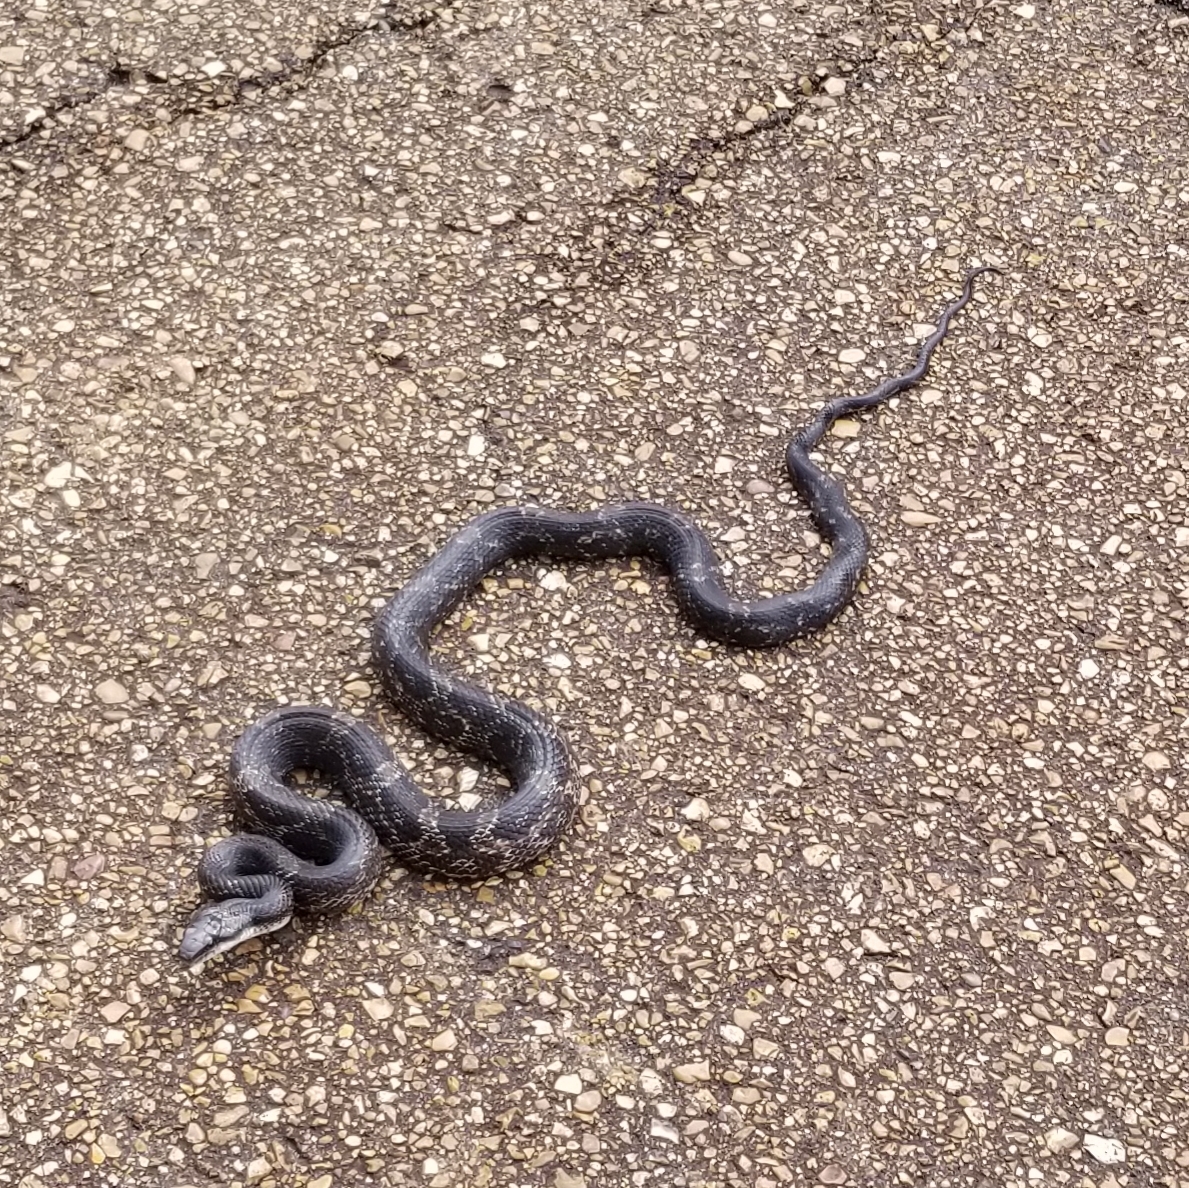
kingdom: Animalia
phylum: Chordata
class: Squamata
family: Colubridae
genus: Pantherophis
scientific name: Pantherophis obsoletus
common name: Black rat snake
